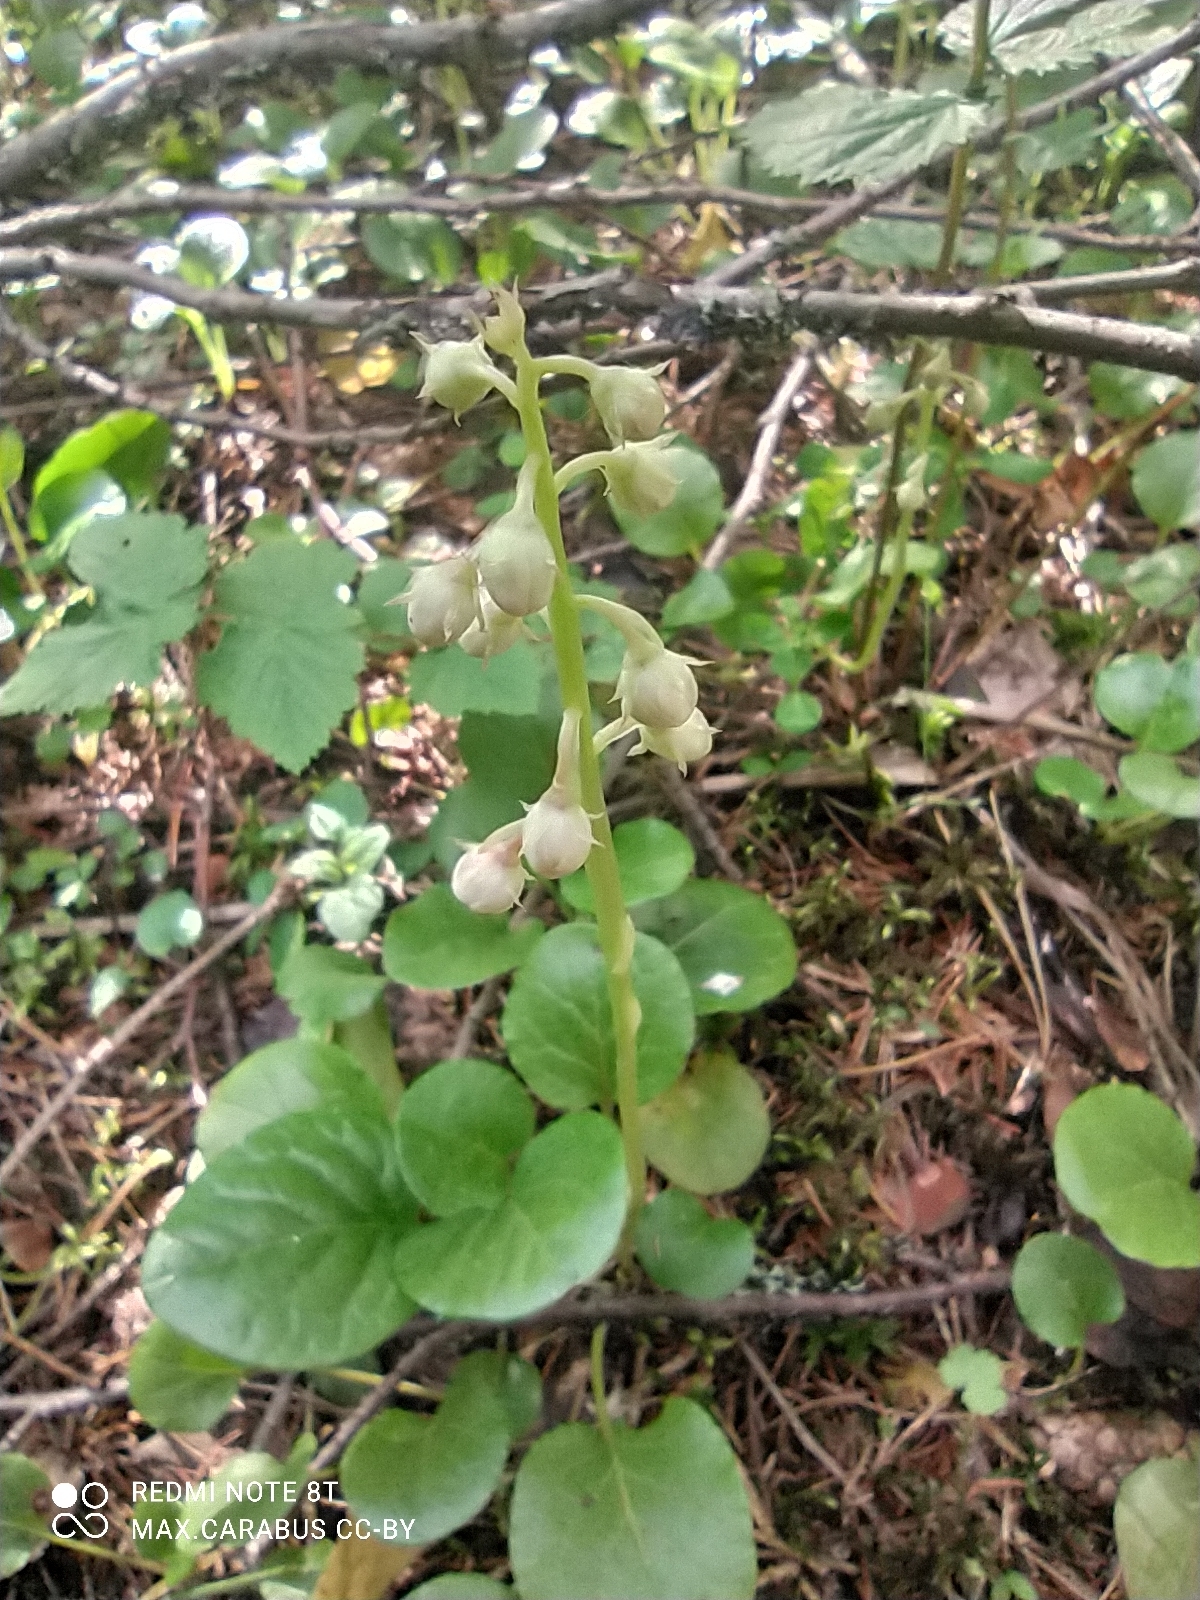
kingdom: Plantae
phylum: Tracheophyta
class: Magnoliopsida
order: Ericales
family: Ericaceae
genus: Pyrola
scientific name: Pyrola rotundifolia
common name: Round-leaved wintergreen
